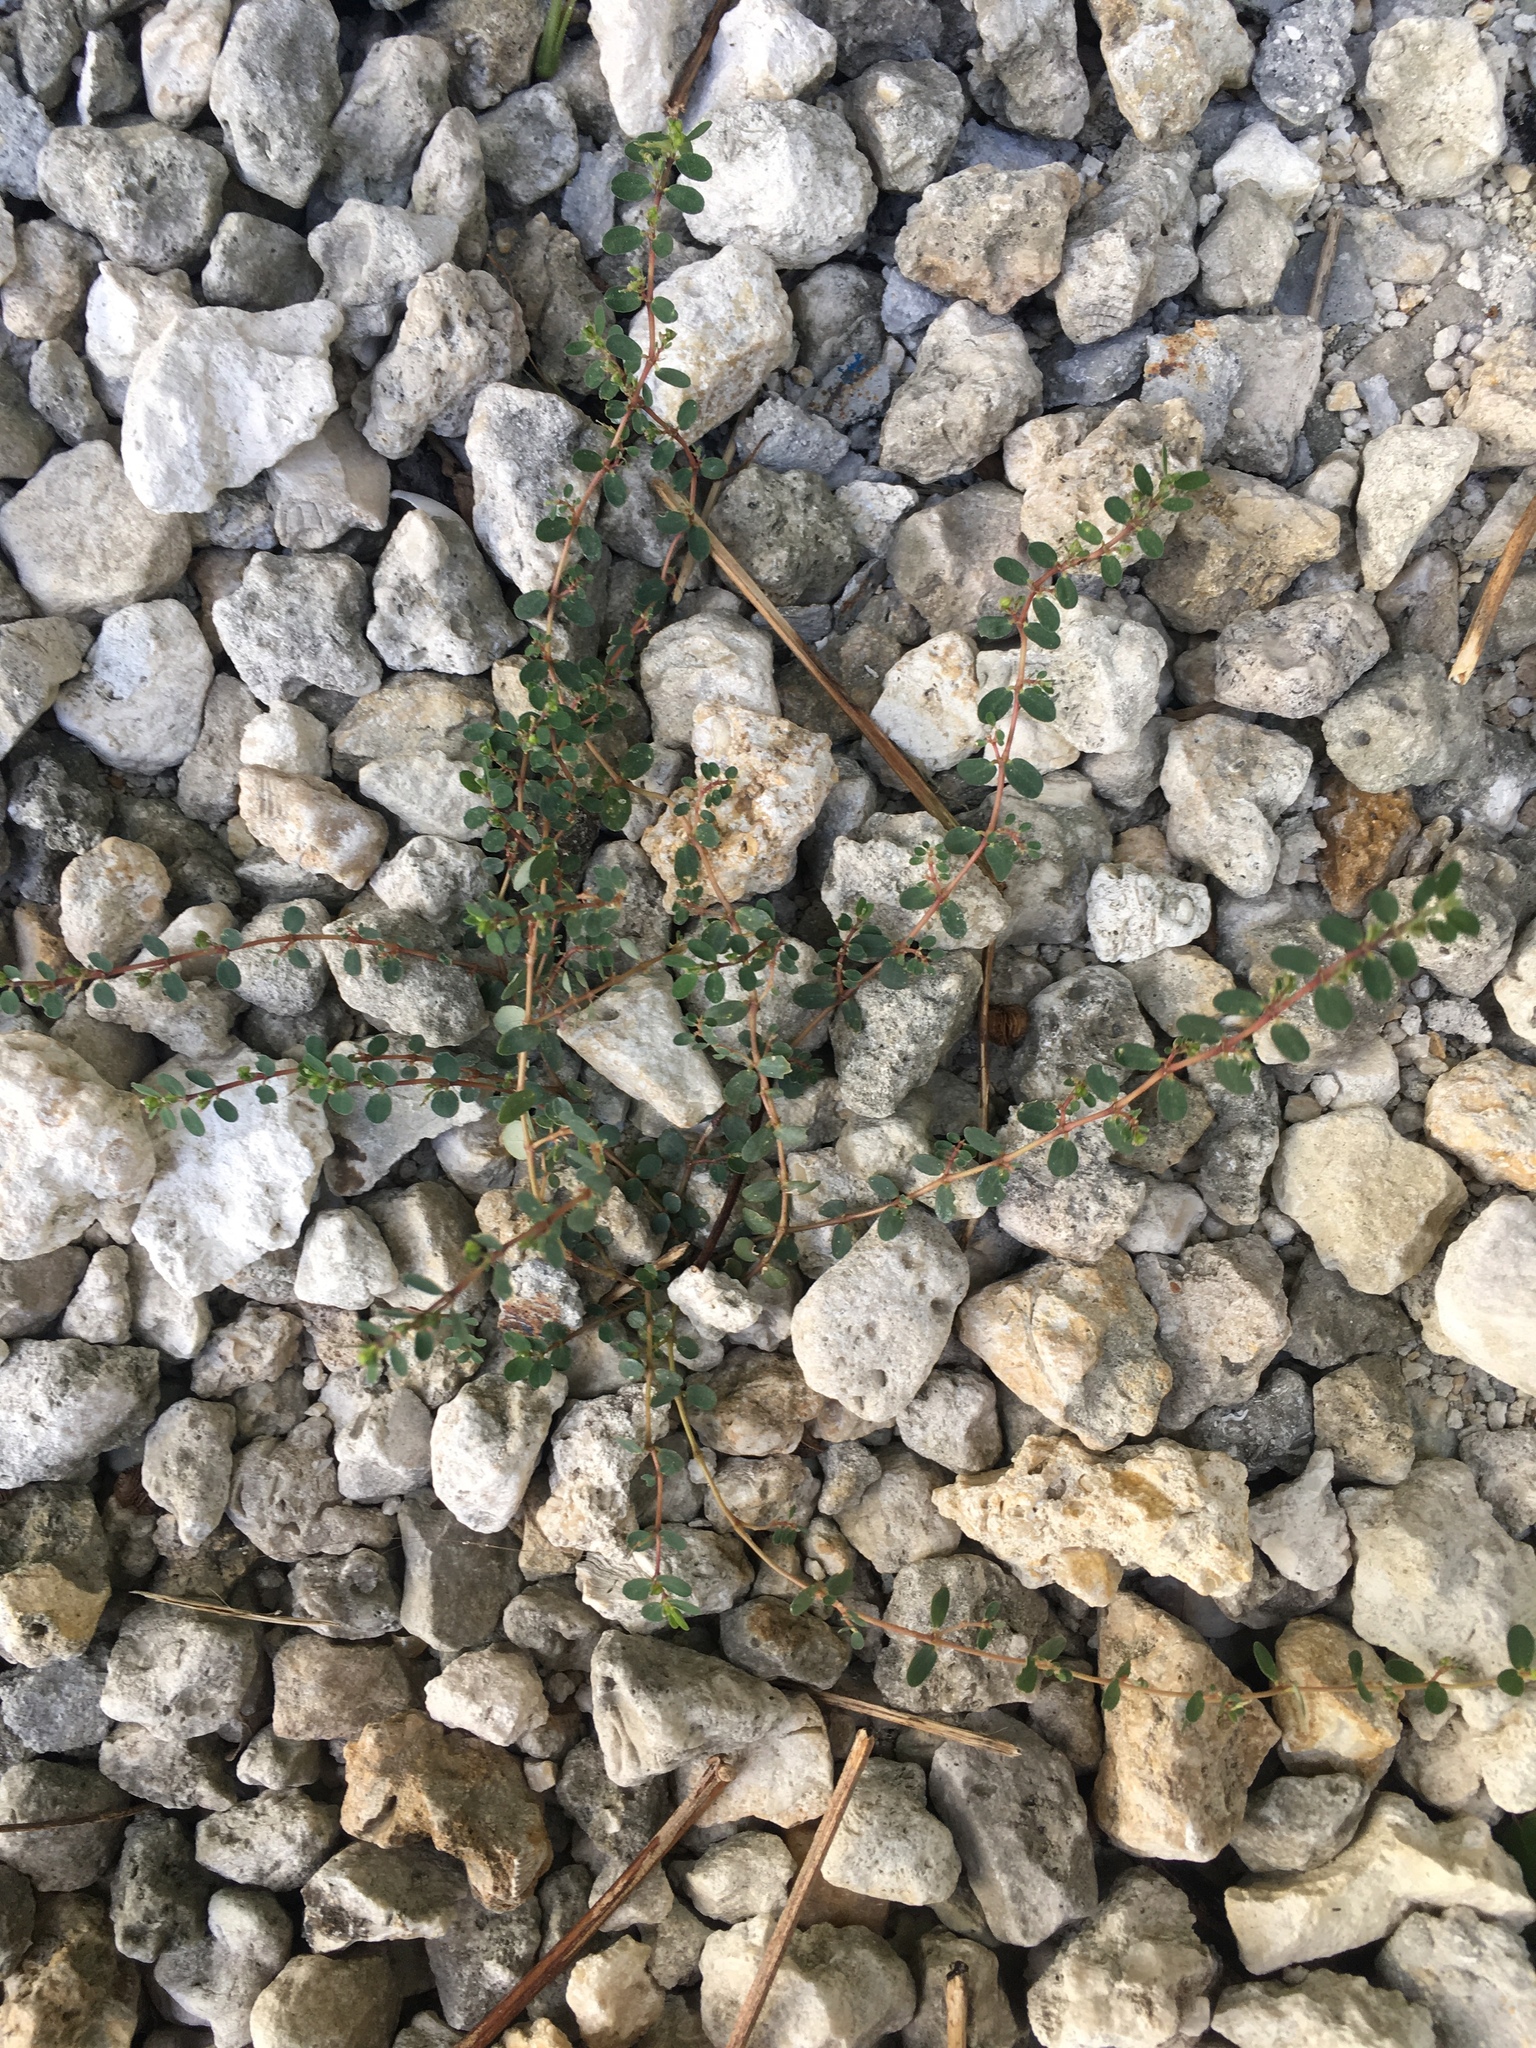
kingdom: Plantae
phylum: Tracheophyta
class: Magnoliopsida
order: Malpighiales
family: Euphorbiaceae
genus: Euphorbia
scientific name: Euphorbia prostrata
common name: Prostrate sandmat
